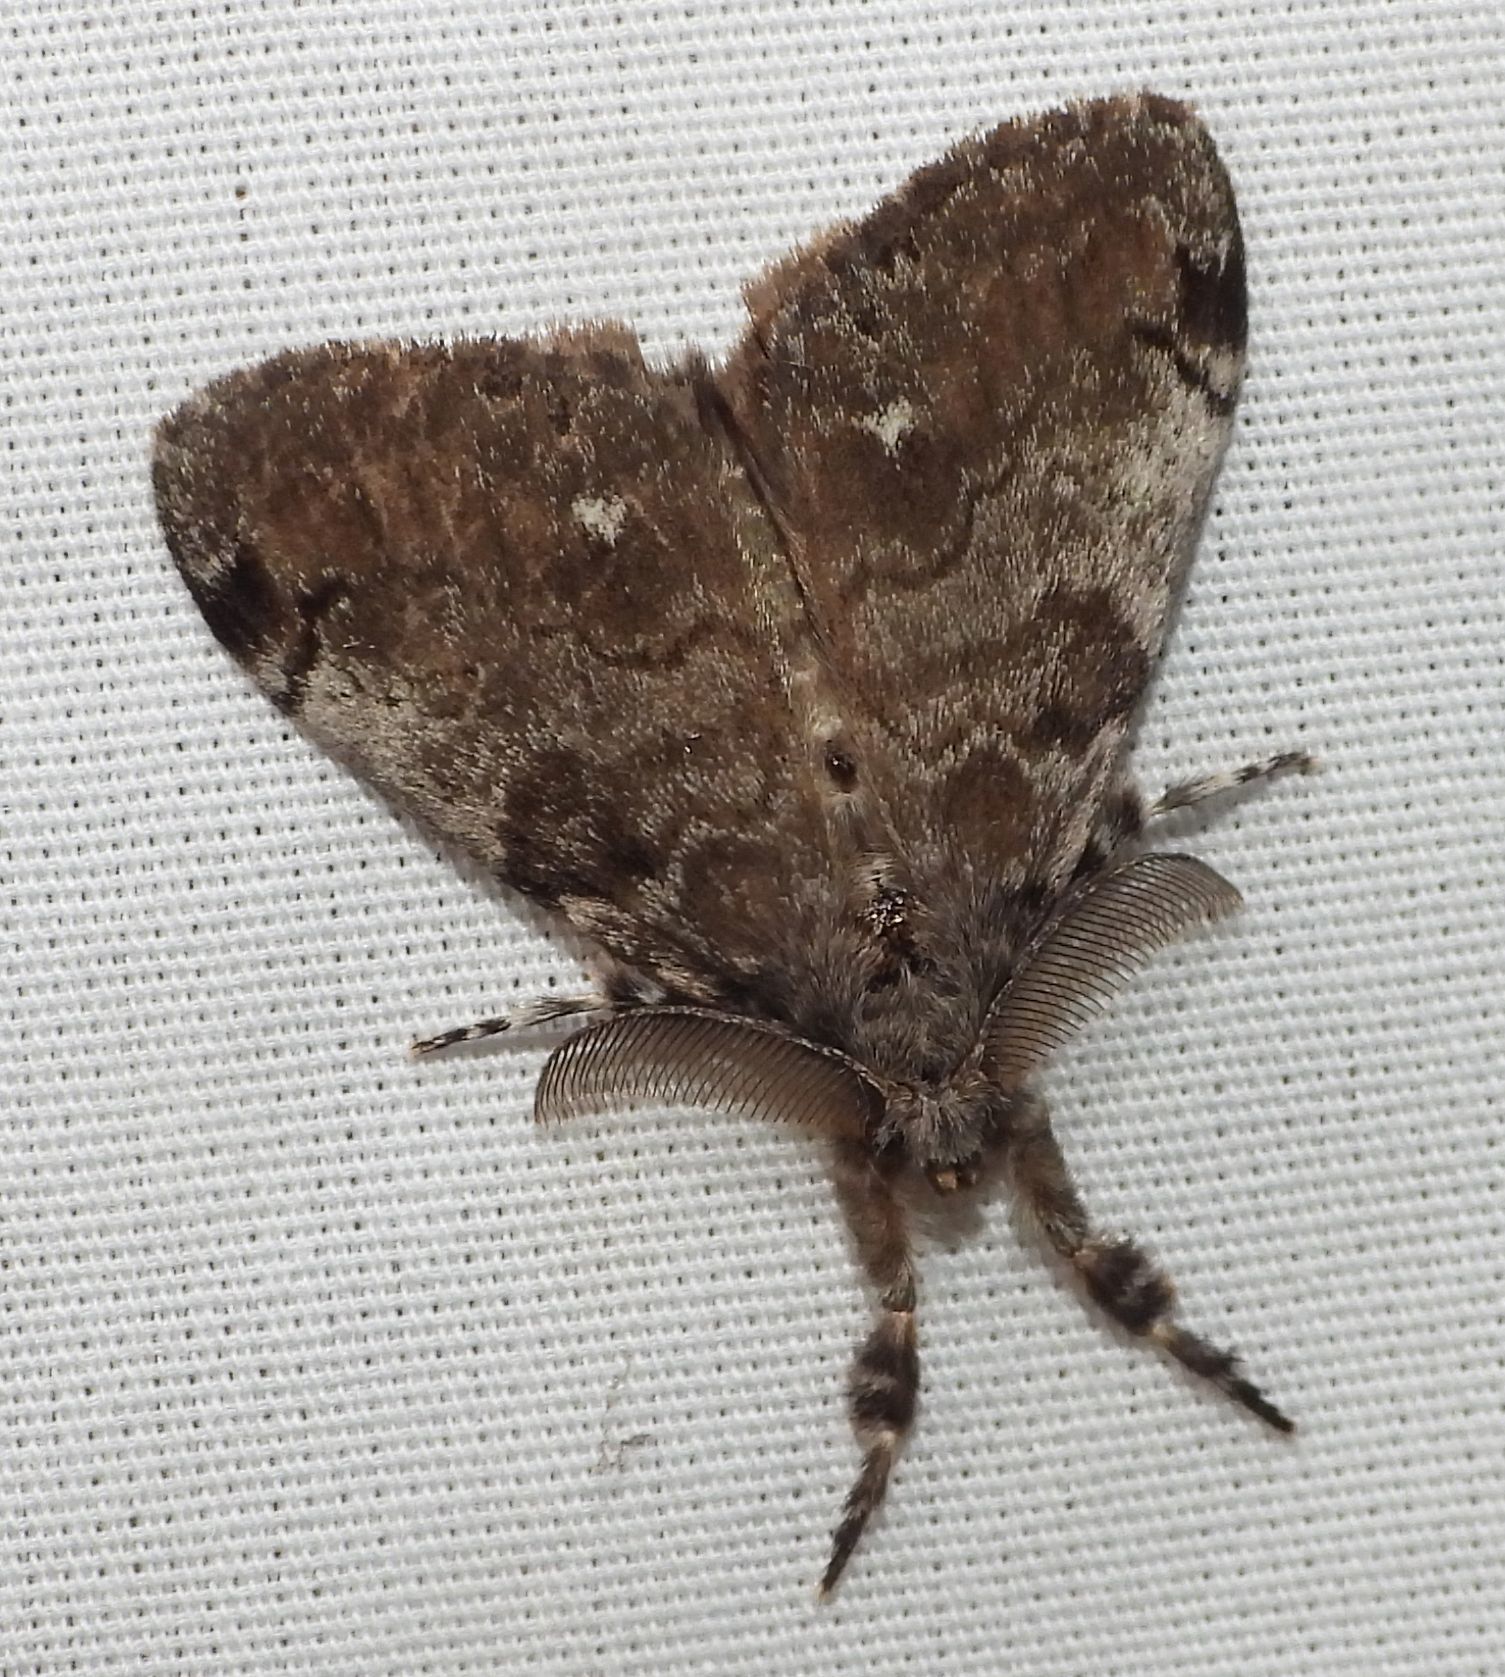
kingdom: Animalia
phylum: Arthropoda
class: Insecta
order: Lepidoptera
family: Erebidae
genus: Orgyia
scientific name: Orgyia leucostigma
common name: White-marked tussock moth
